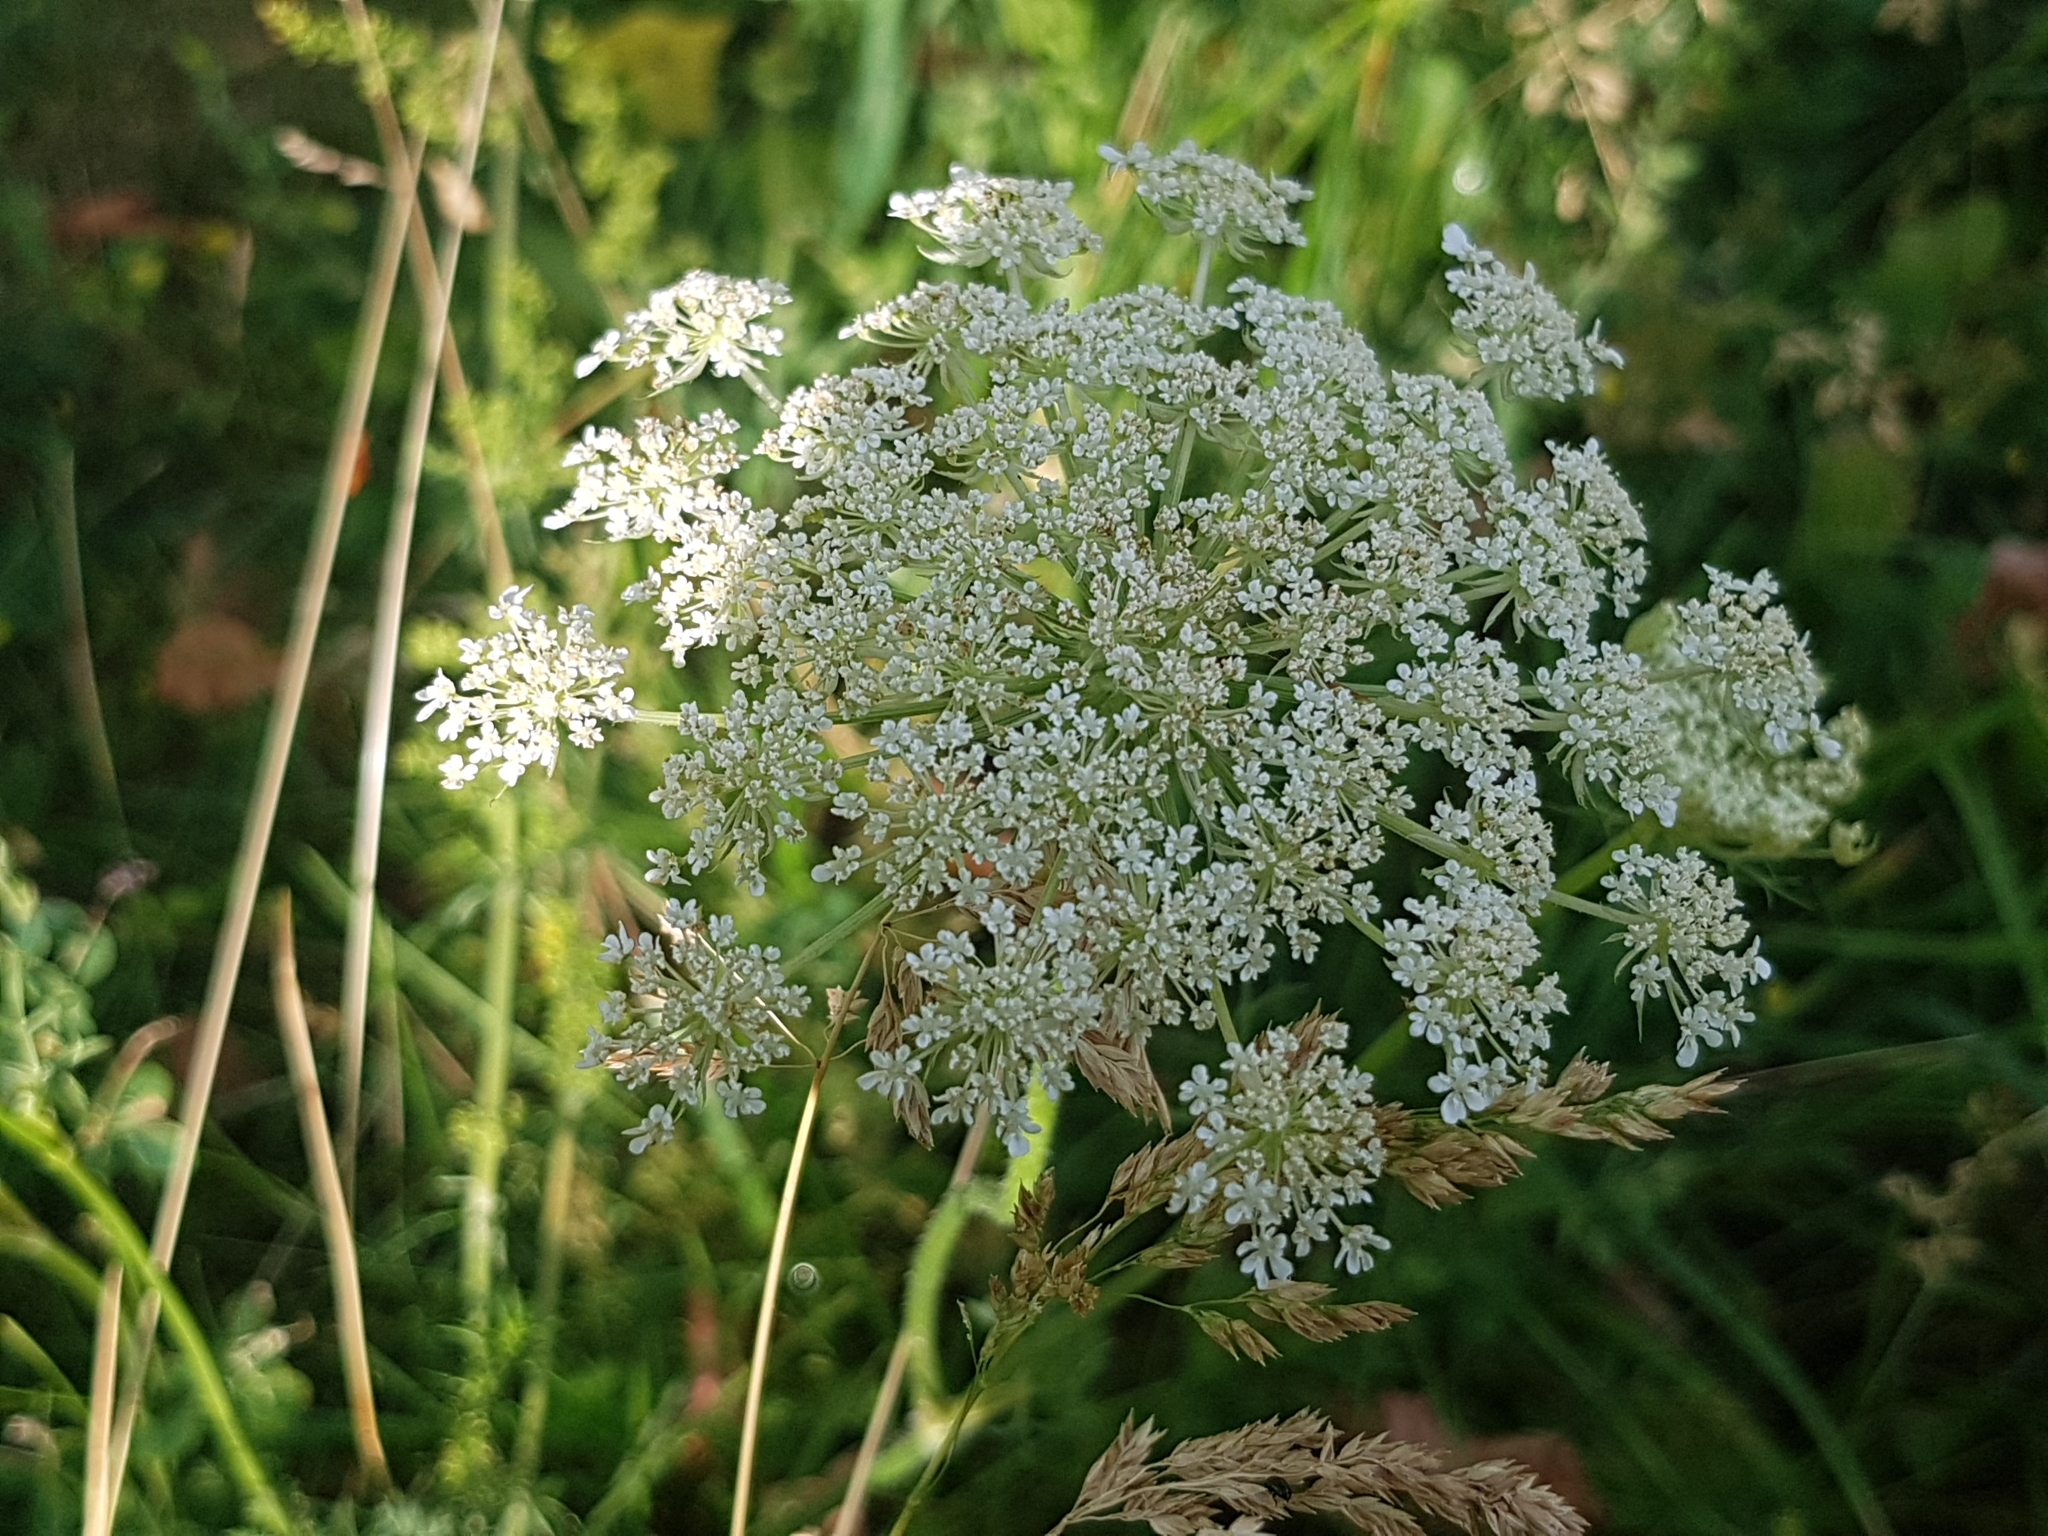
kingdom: Plantae
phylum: Tracheophyta
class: Magnoliopsida
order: Apiales
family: Apiaceae
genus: Daucus
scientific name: Daucus carota
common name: Wild carrot
